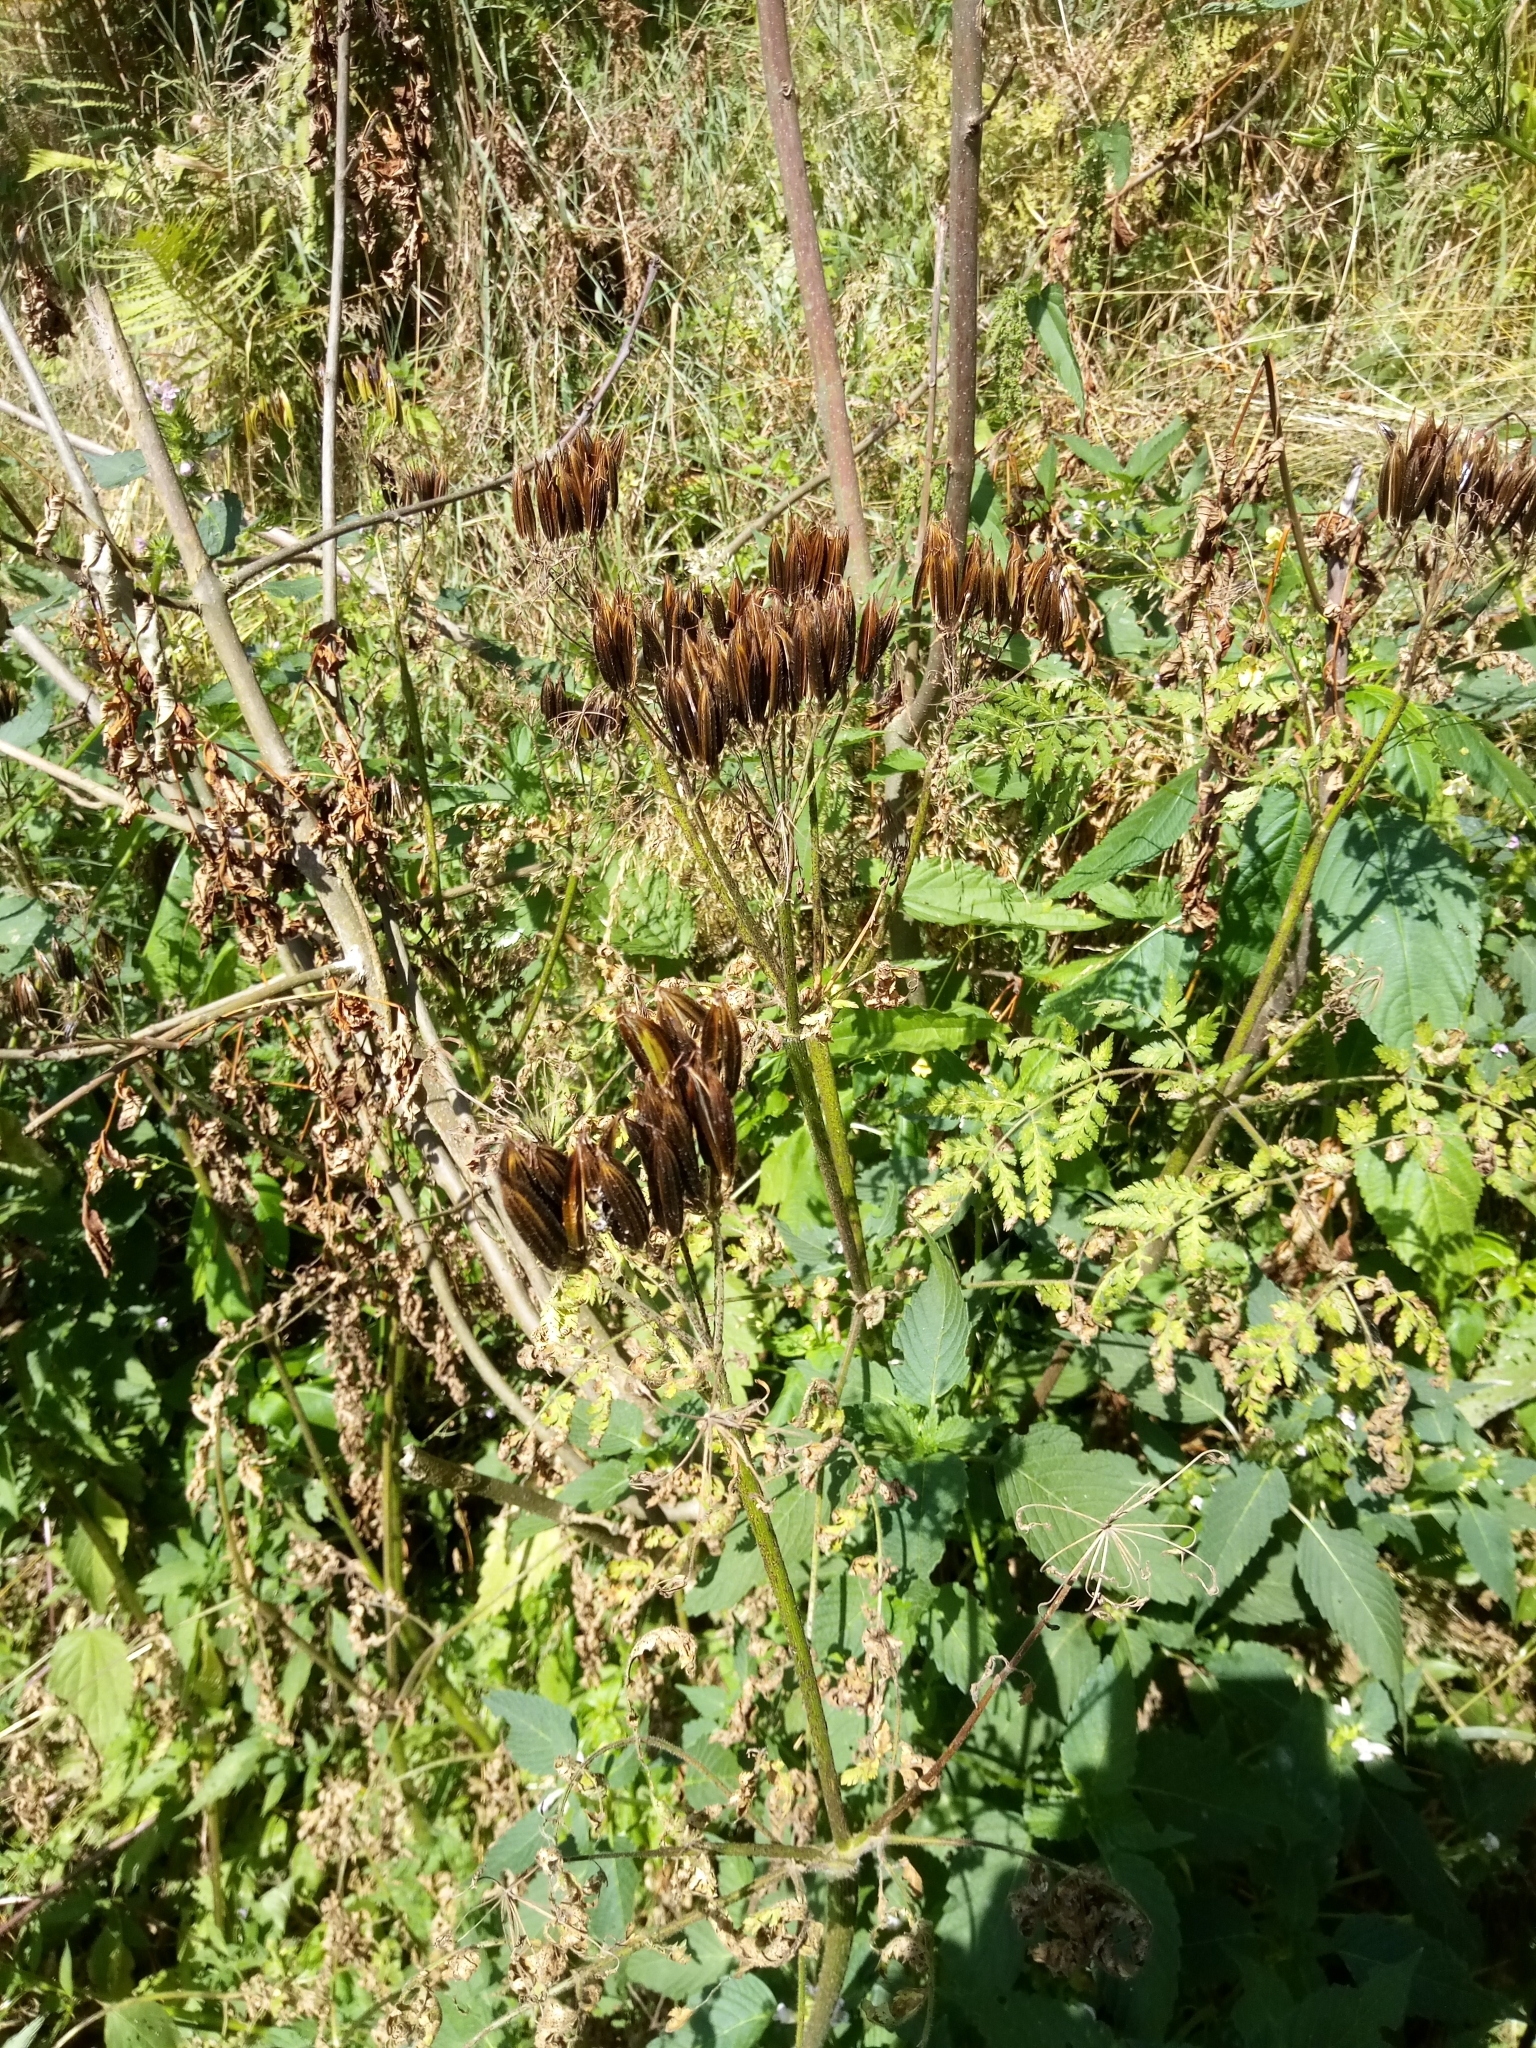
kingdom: Plantae
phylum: Tracheophyta
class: Magnoliopsida
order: Apiales
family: Apiaceae
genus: Myrrhis
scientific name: Myrrhis odorata
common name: Sweet cicely
